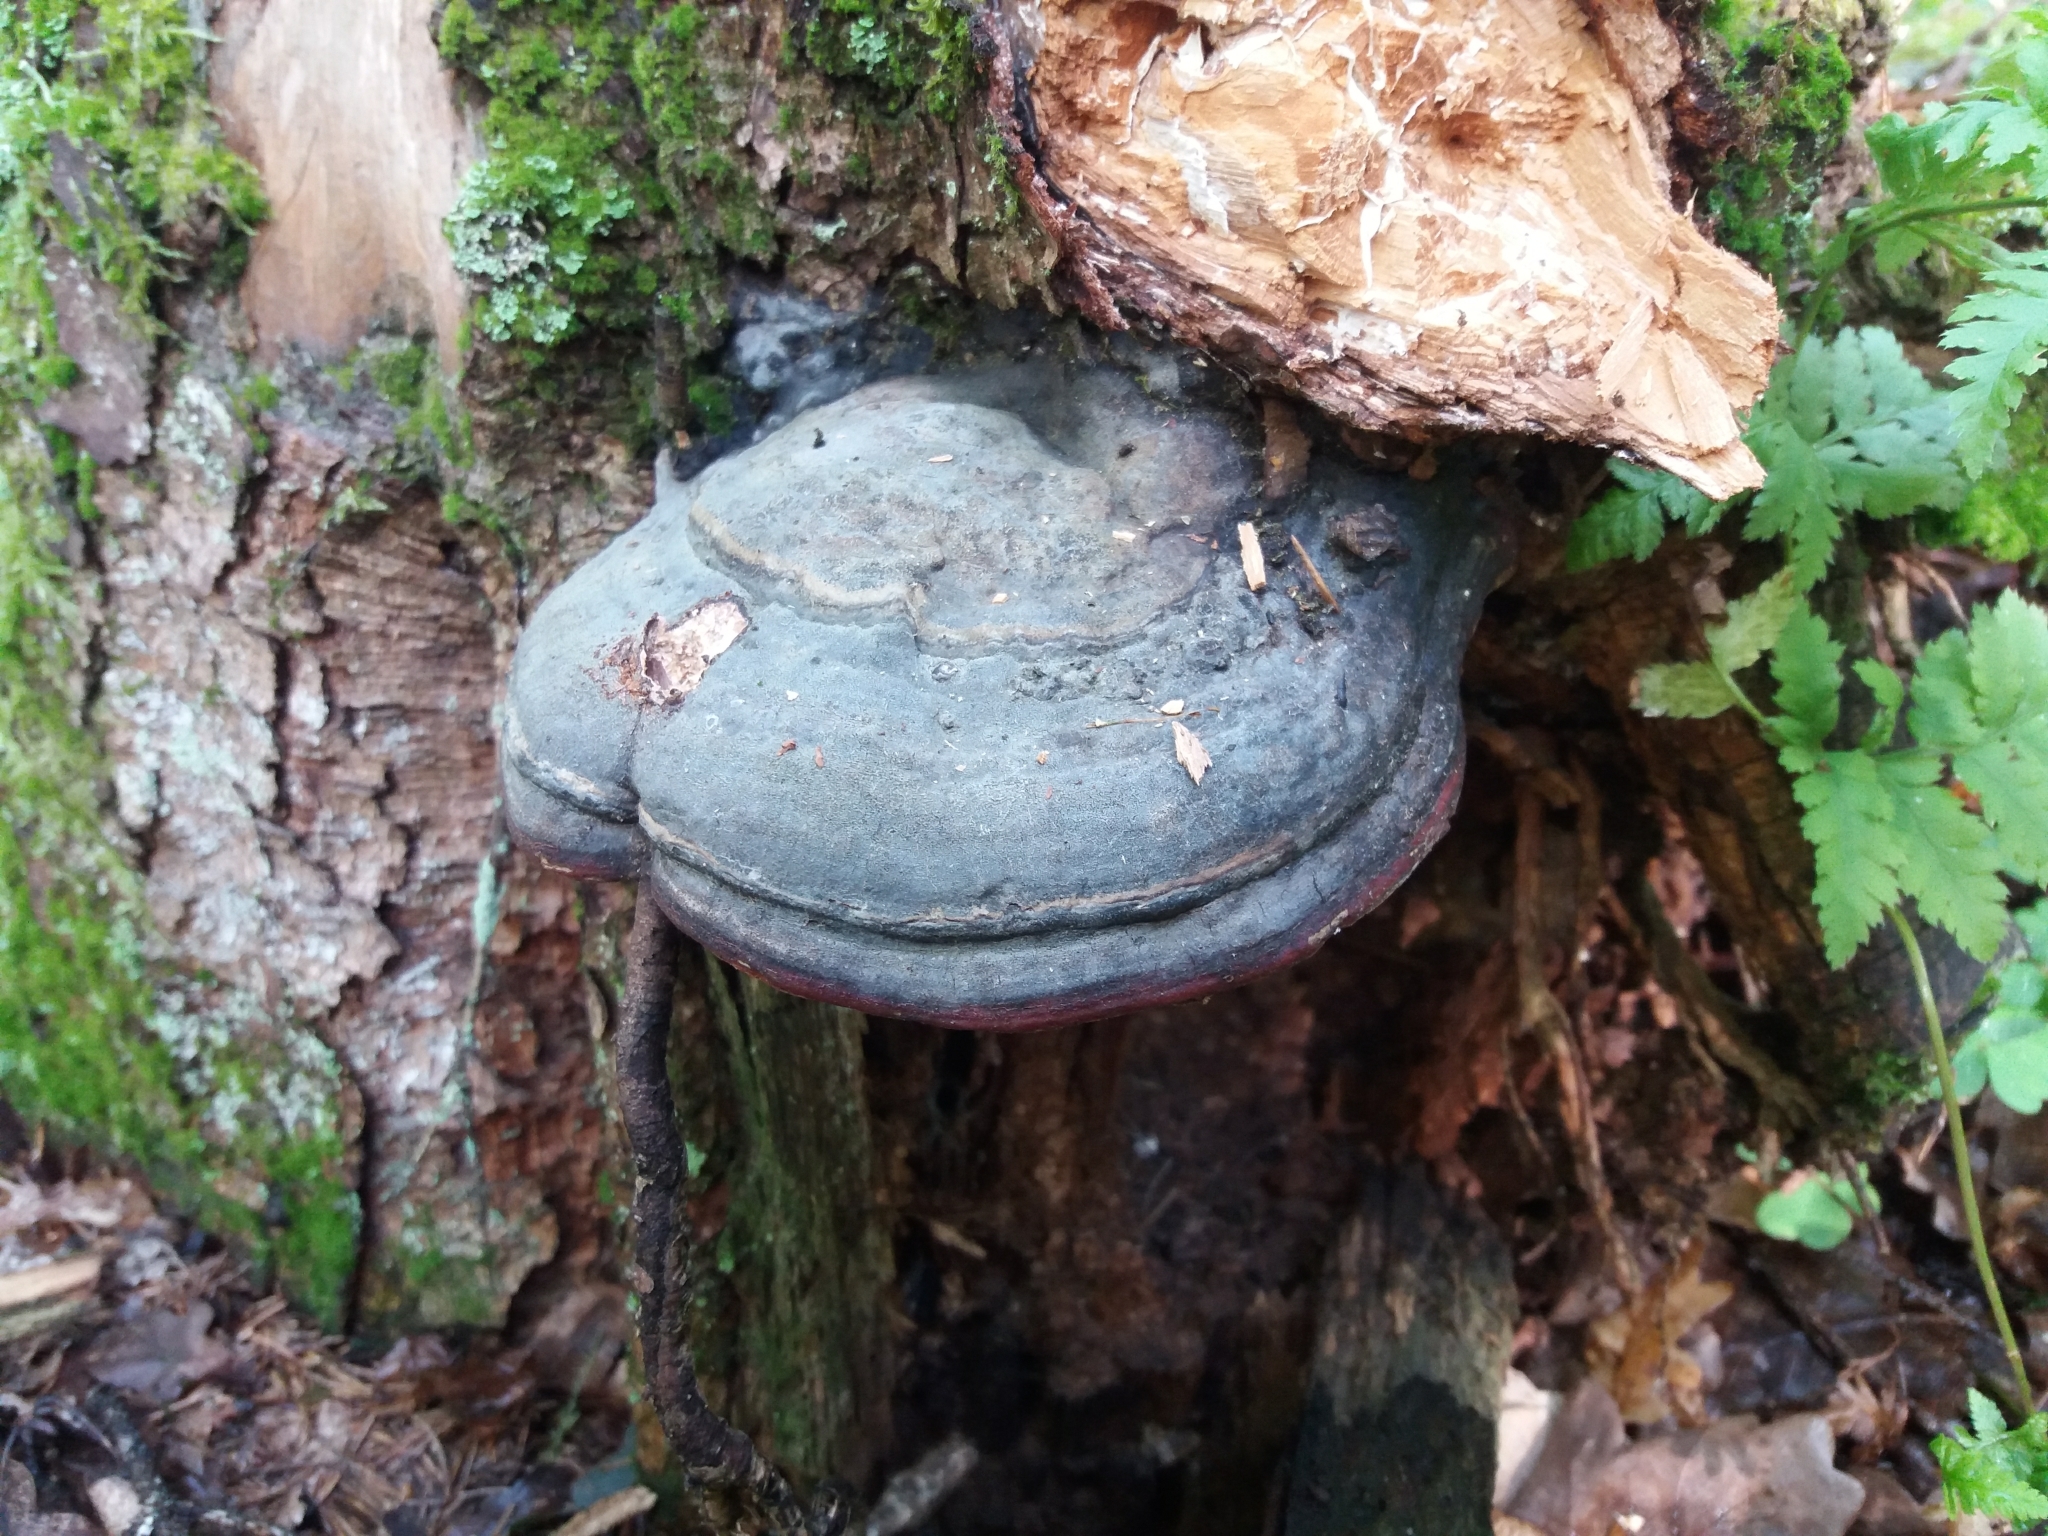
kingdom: Fungi
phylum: Basidiomycota
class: Agaricomycetes
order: Polyporales
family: Fomitopsidaceae
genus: Fomitopsis
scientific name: Fomitopsis pinicola
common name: Red-belted bracket
